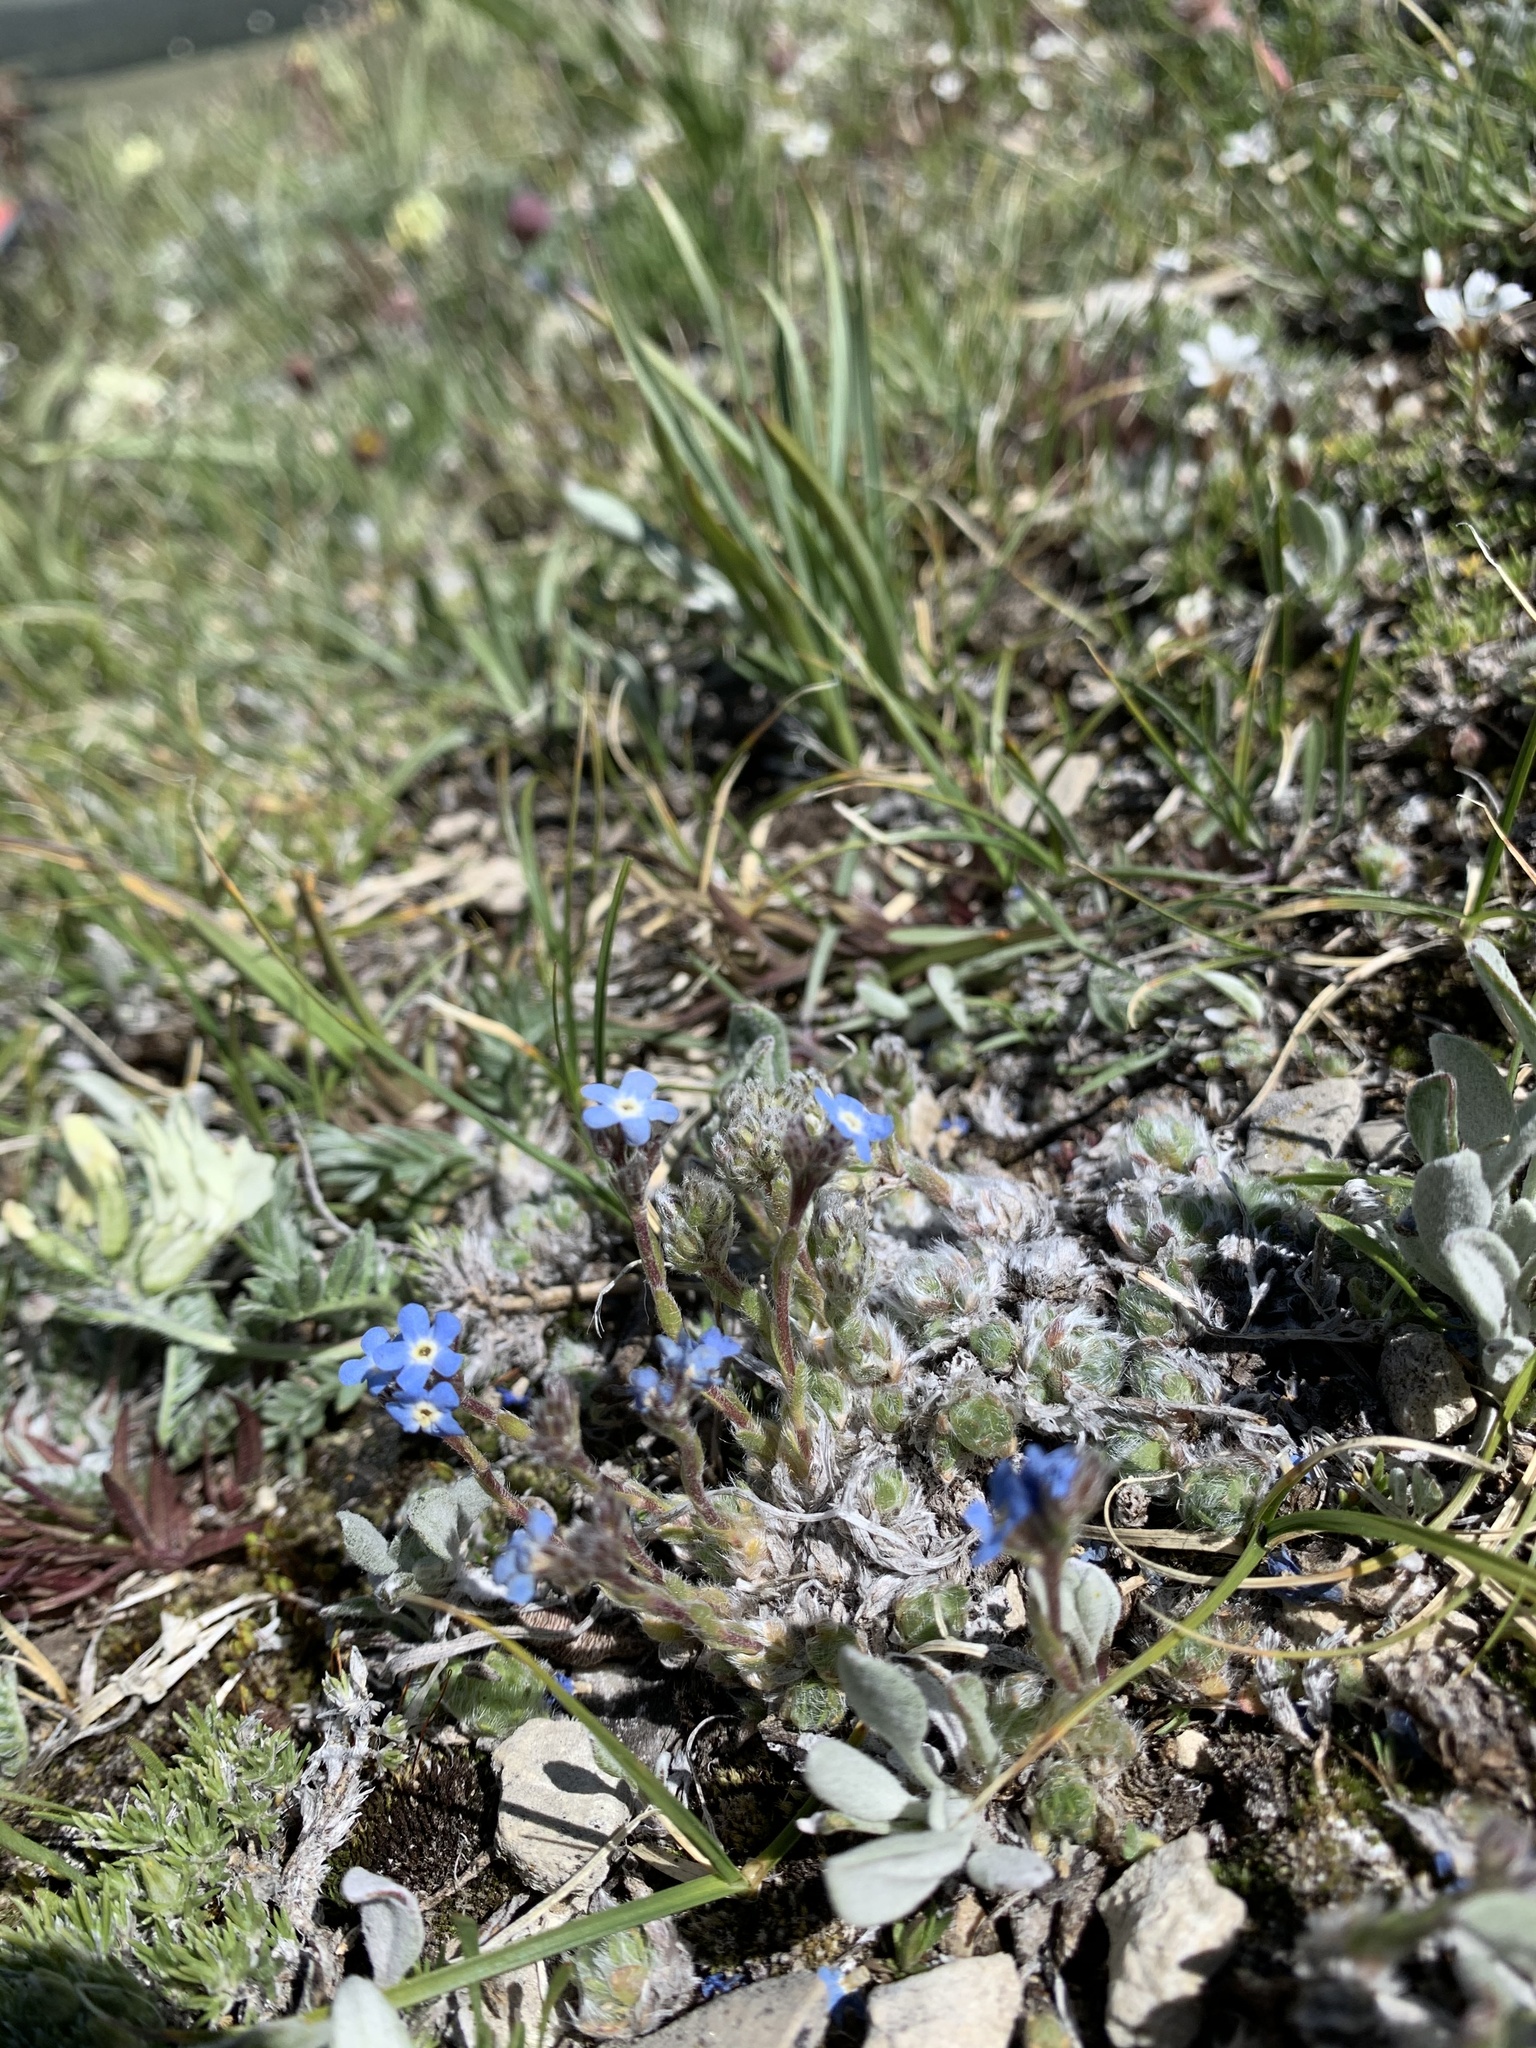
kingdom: Plantae
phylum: Tracheophyta
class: Magnoliopsida
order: Boraginales
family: Boraginaceae
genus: Eritrichium
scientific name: Eritrichium argenteum
